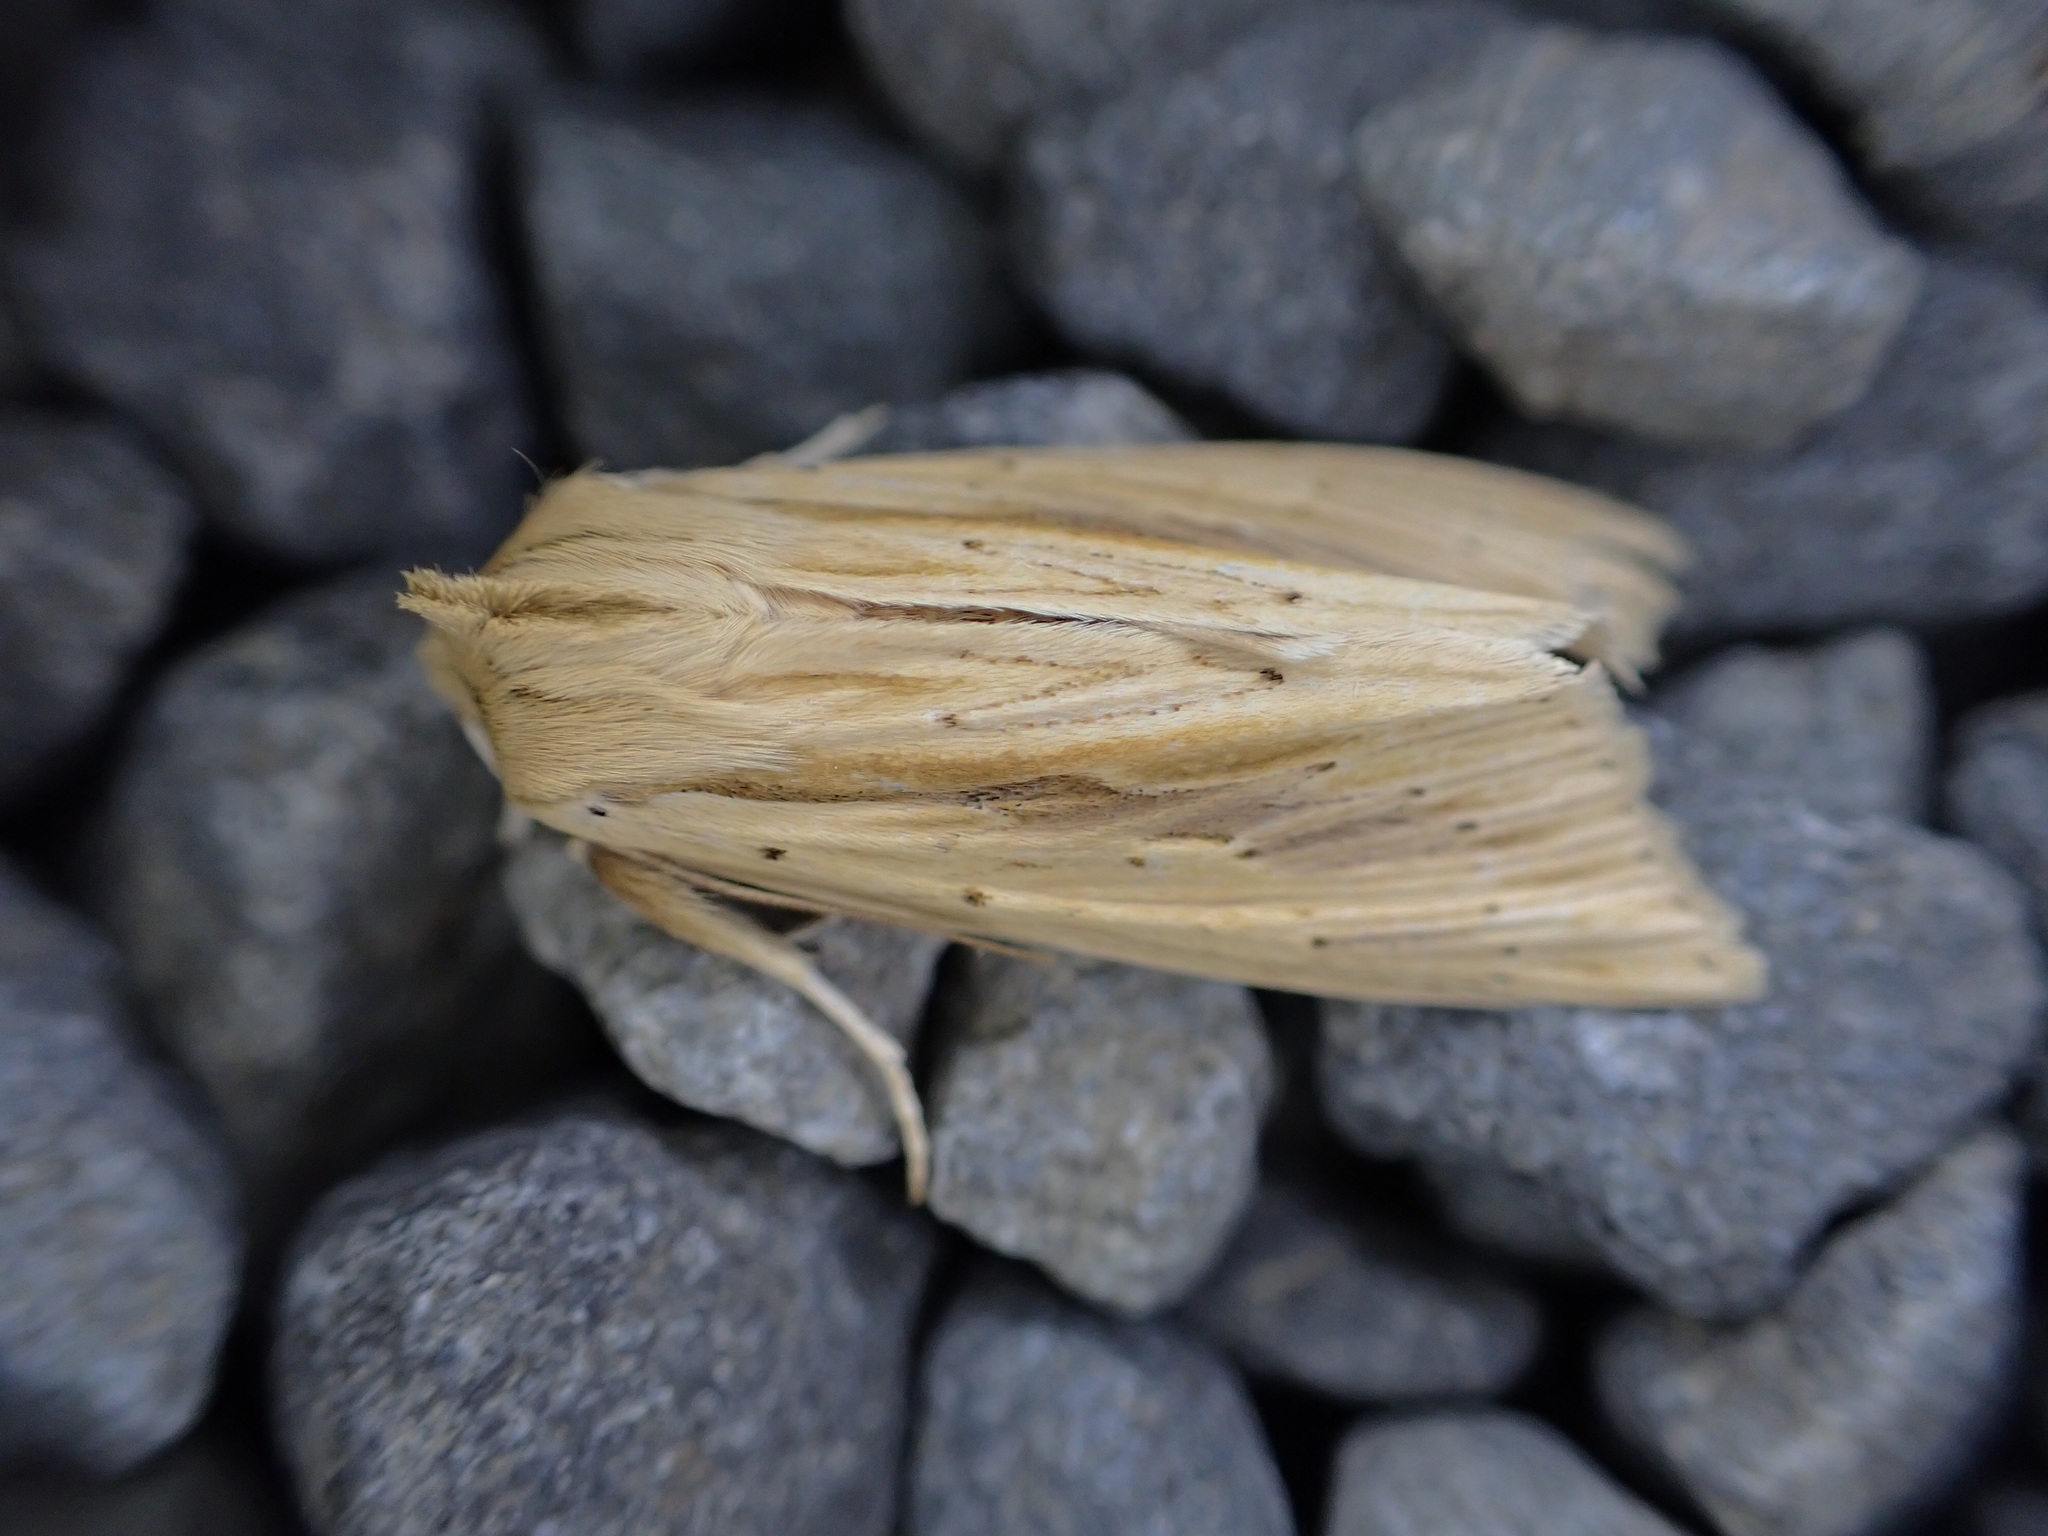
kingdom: Animalia
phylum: Arthropoda
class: Insecta
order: Lepidoptera
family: Noctuidae
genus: Ichneutica
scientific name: Ichneutica semivittata
